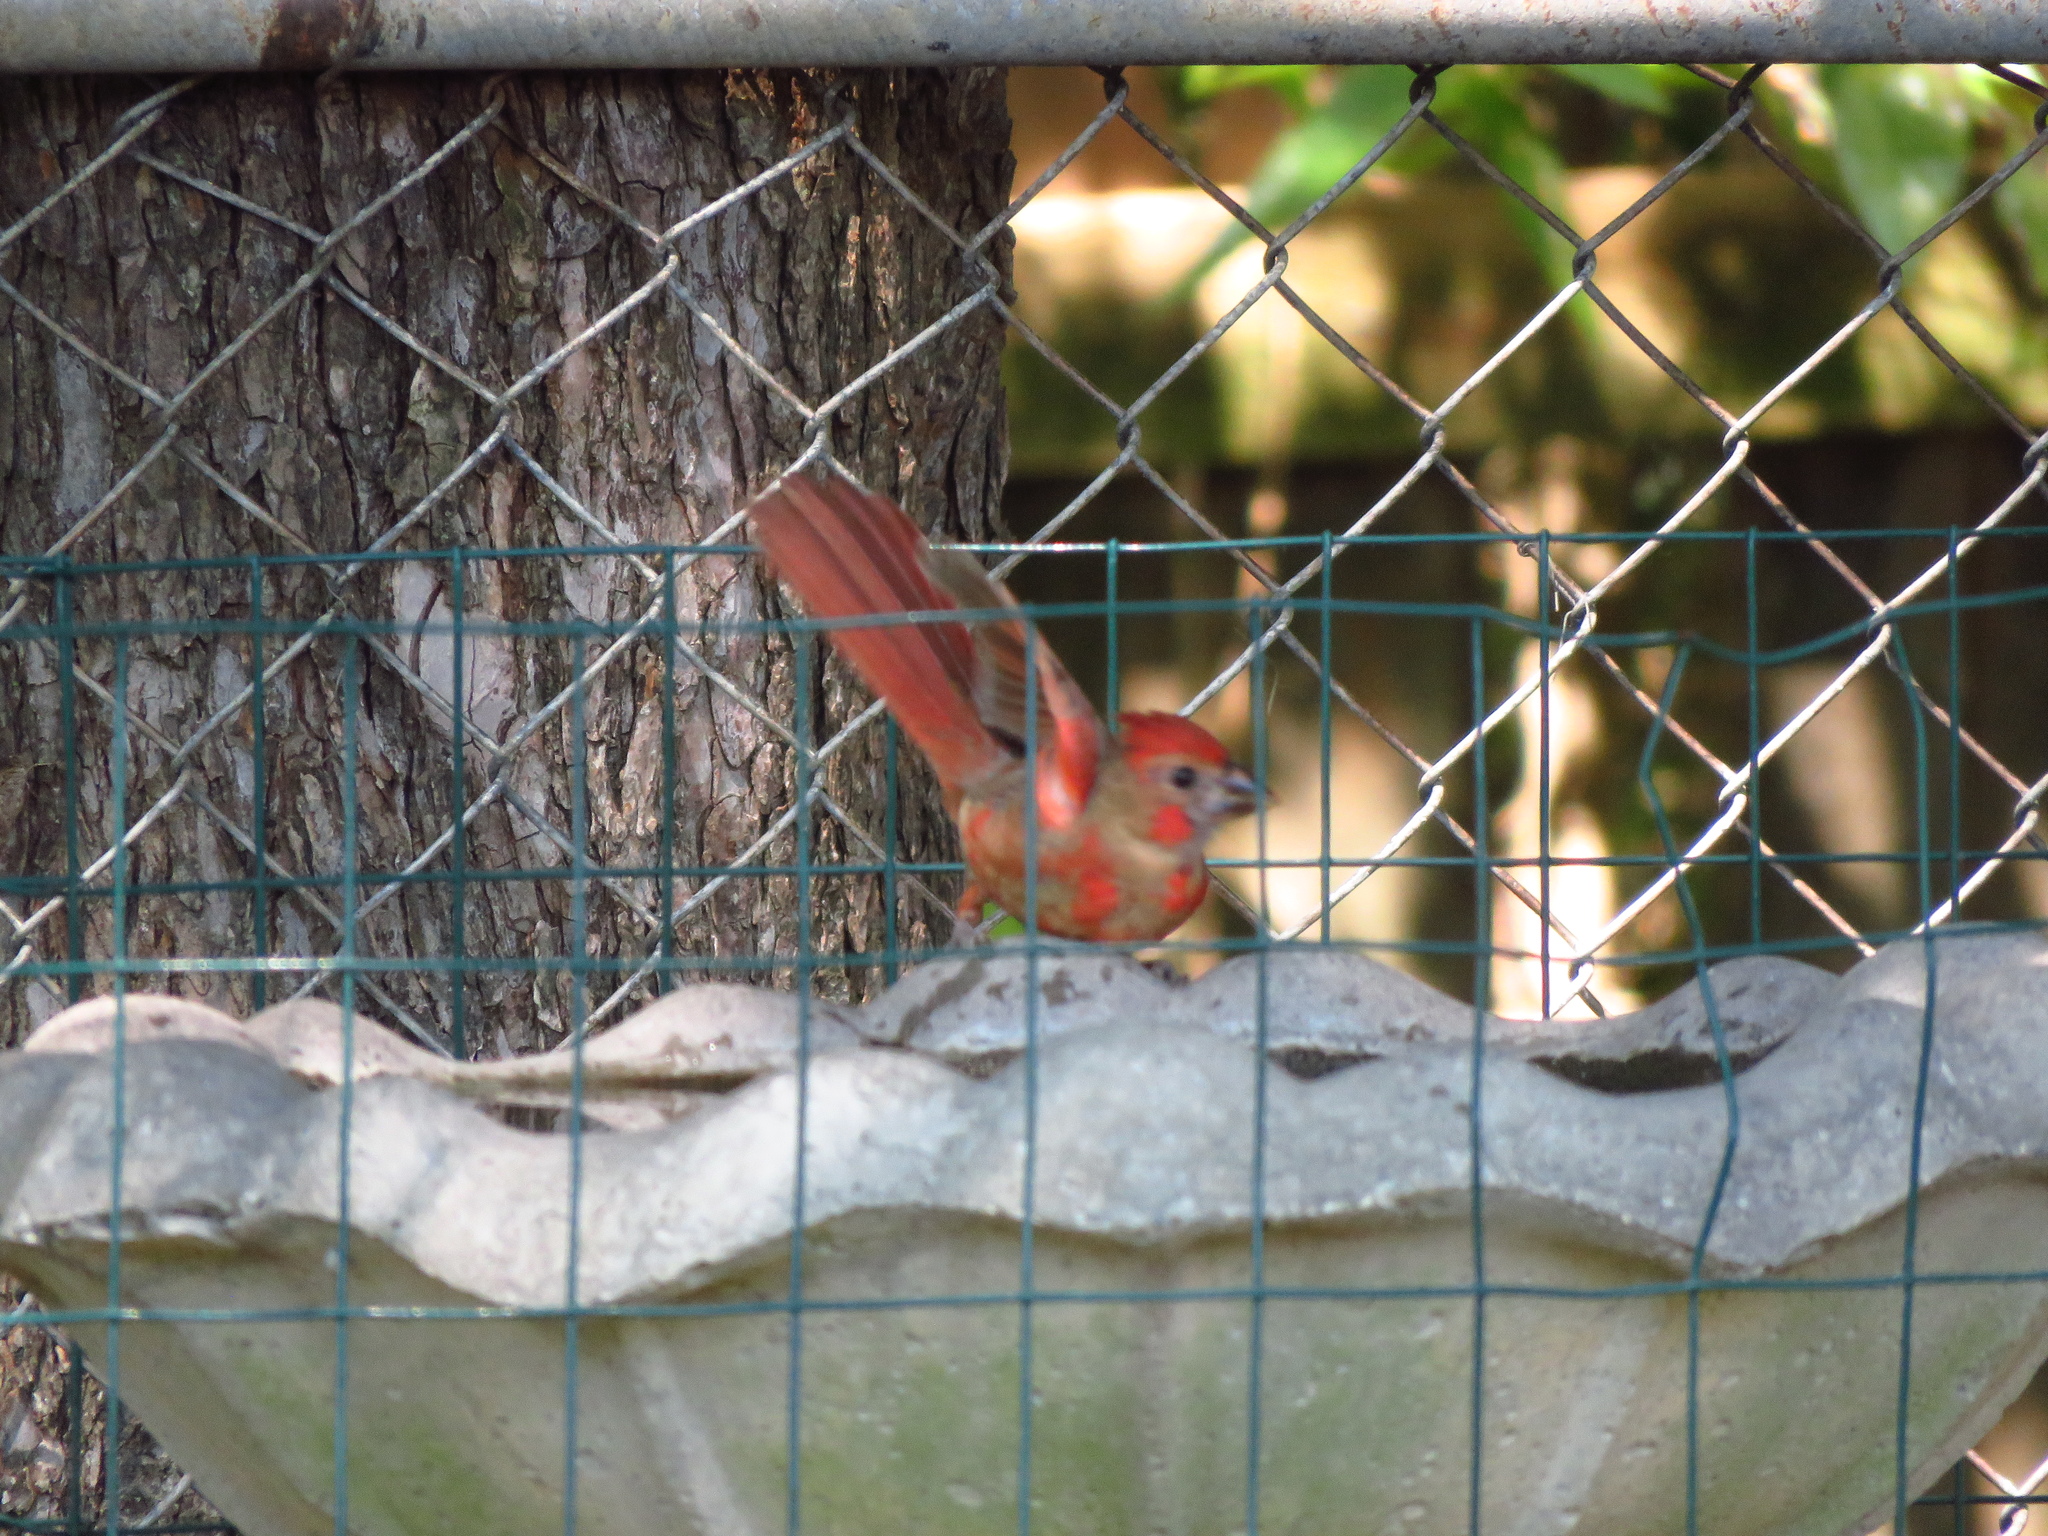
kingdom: Animalia
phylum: Chordata
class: Aves
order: Passeriformes
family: Cardinalidae
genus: Cardinalis
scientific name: Cardinalis cardinalis
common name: Northern cardinal
